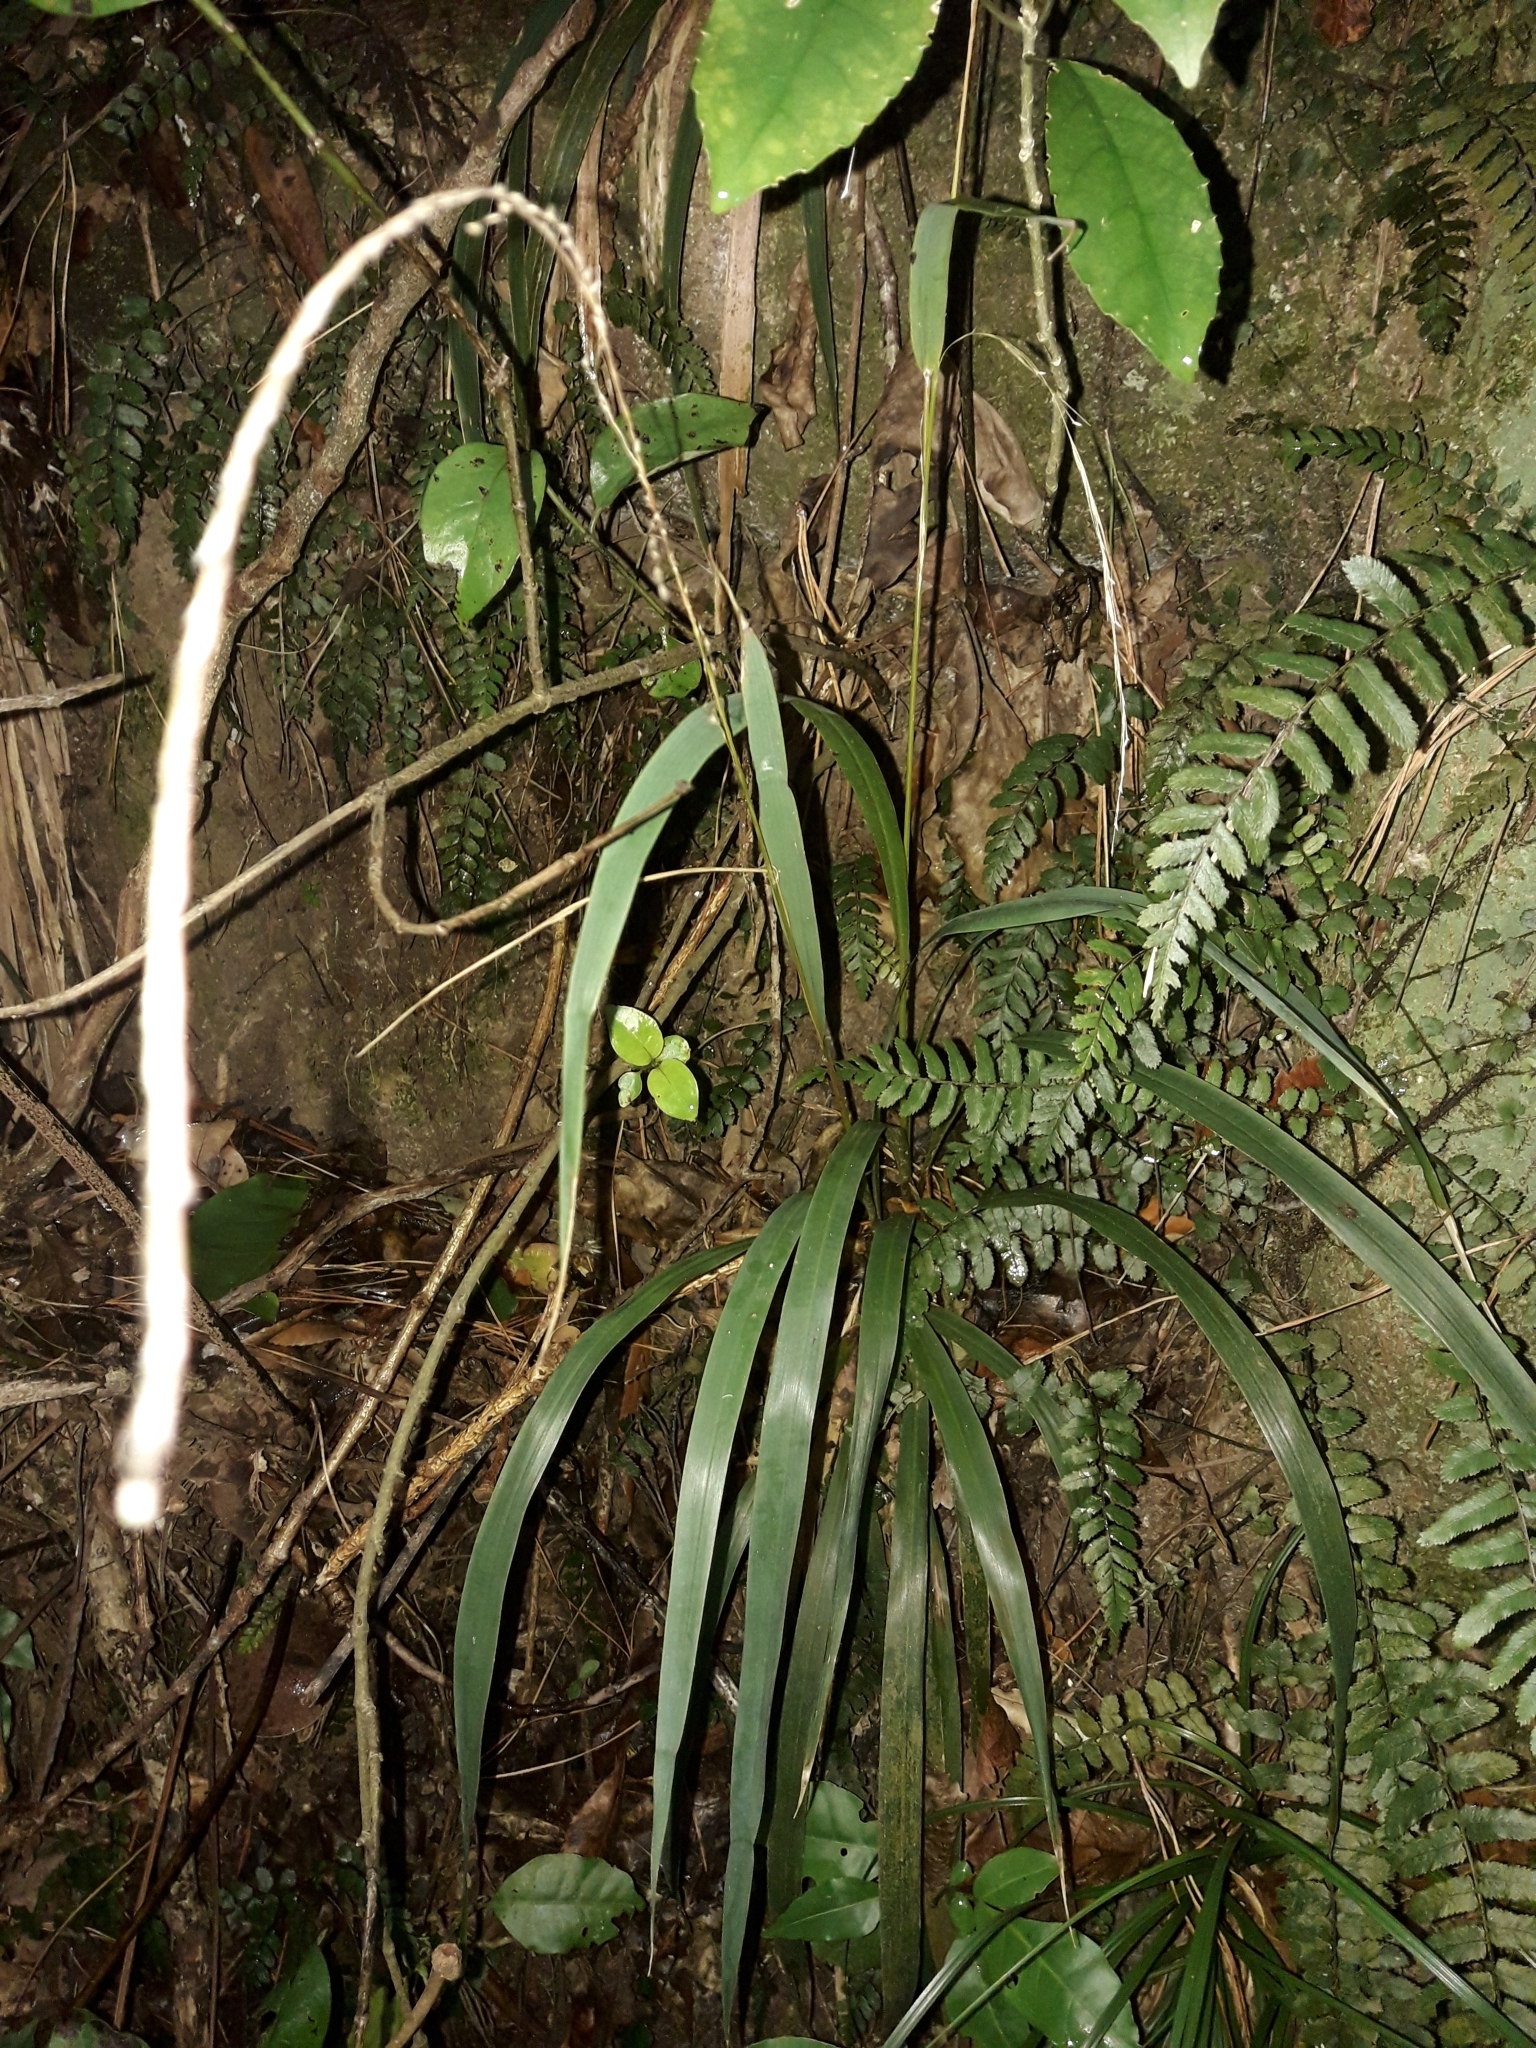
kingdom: Plantae
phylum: Tracheophyta
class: Liliopsida
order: Poales
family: Poaceae
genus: Ehrharta
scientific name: Ehrharta diplax
